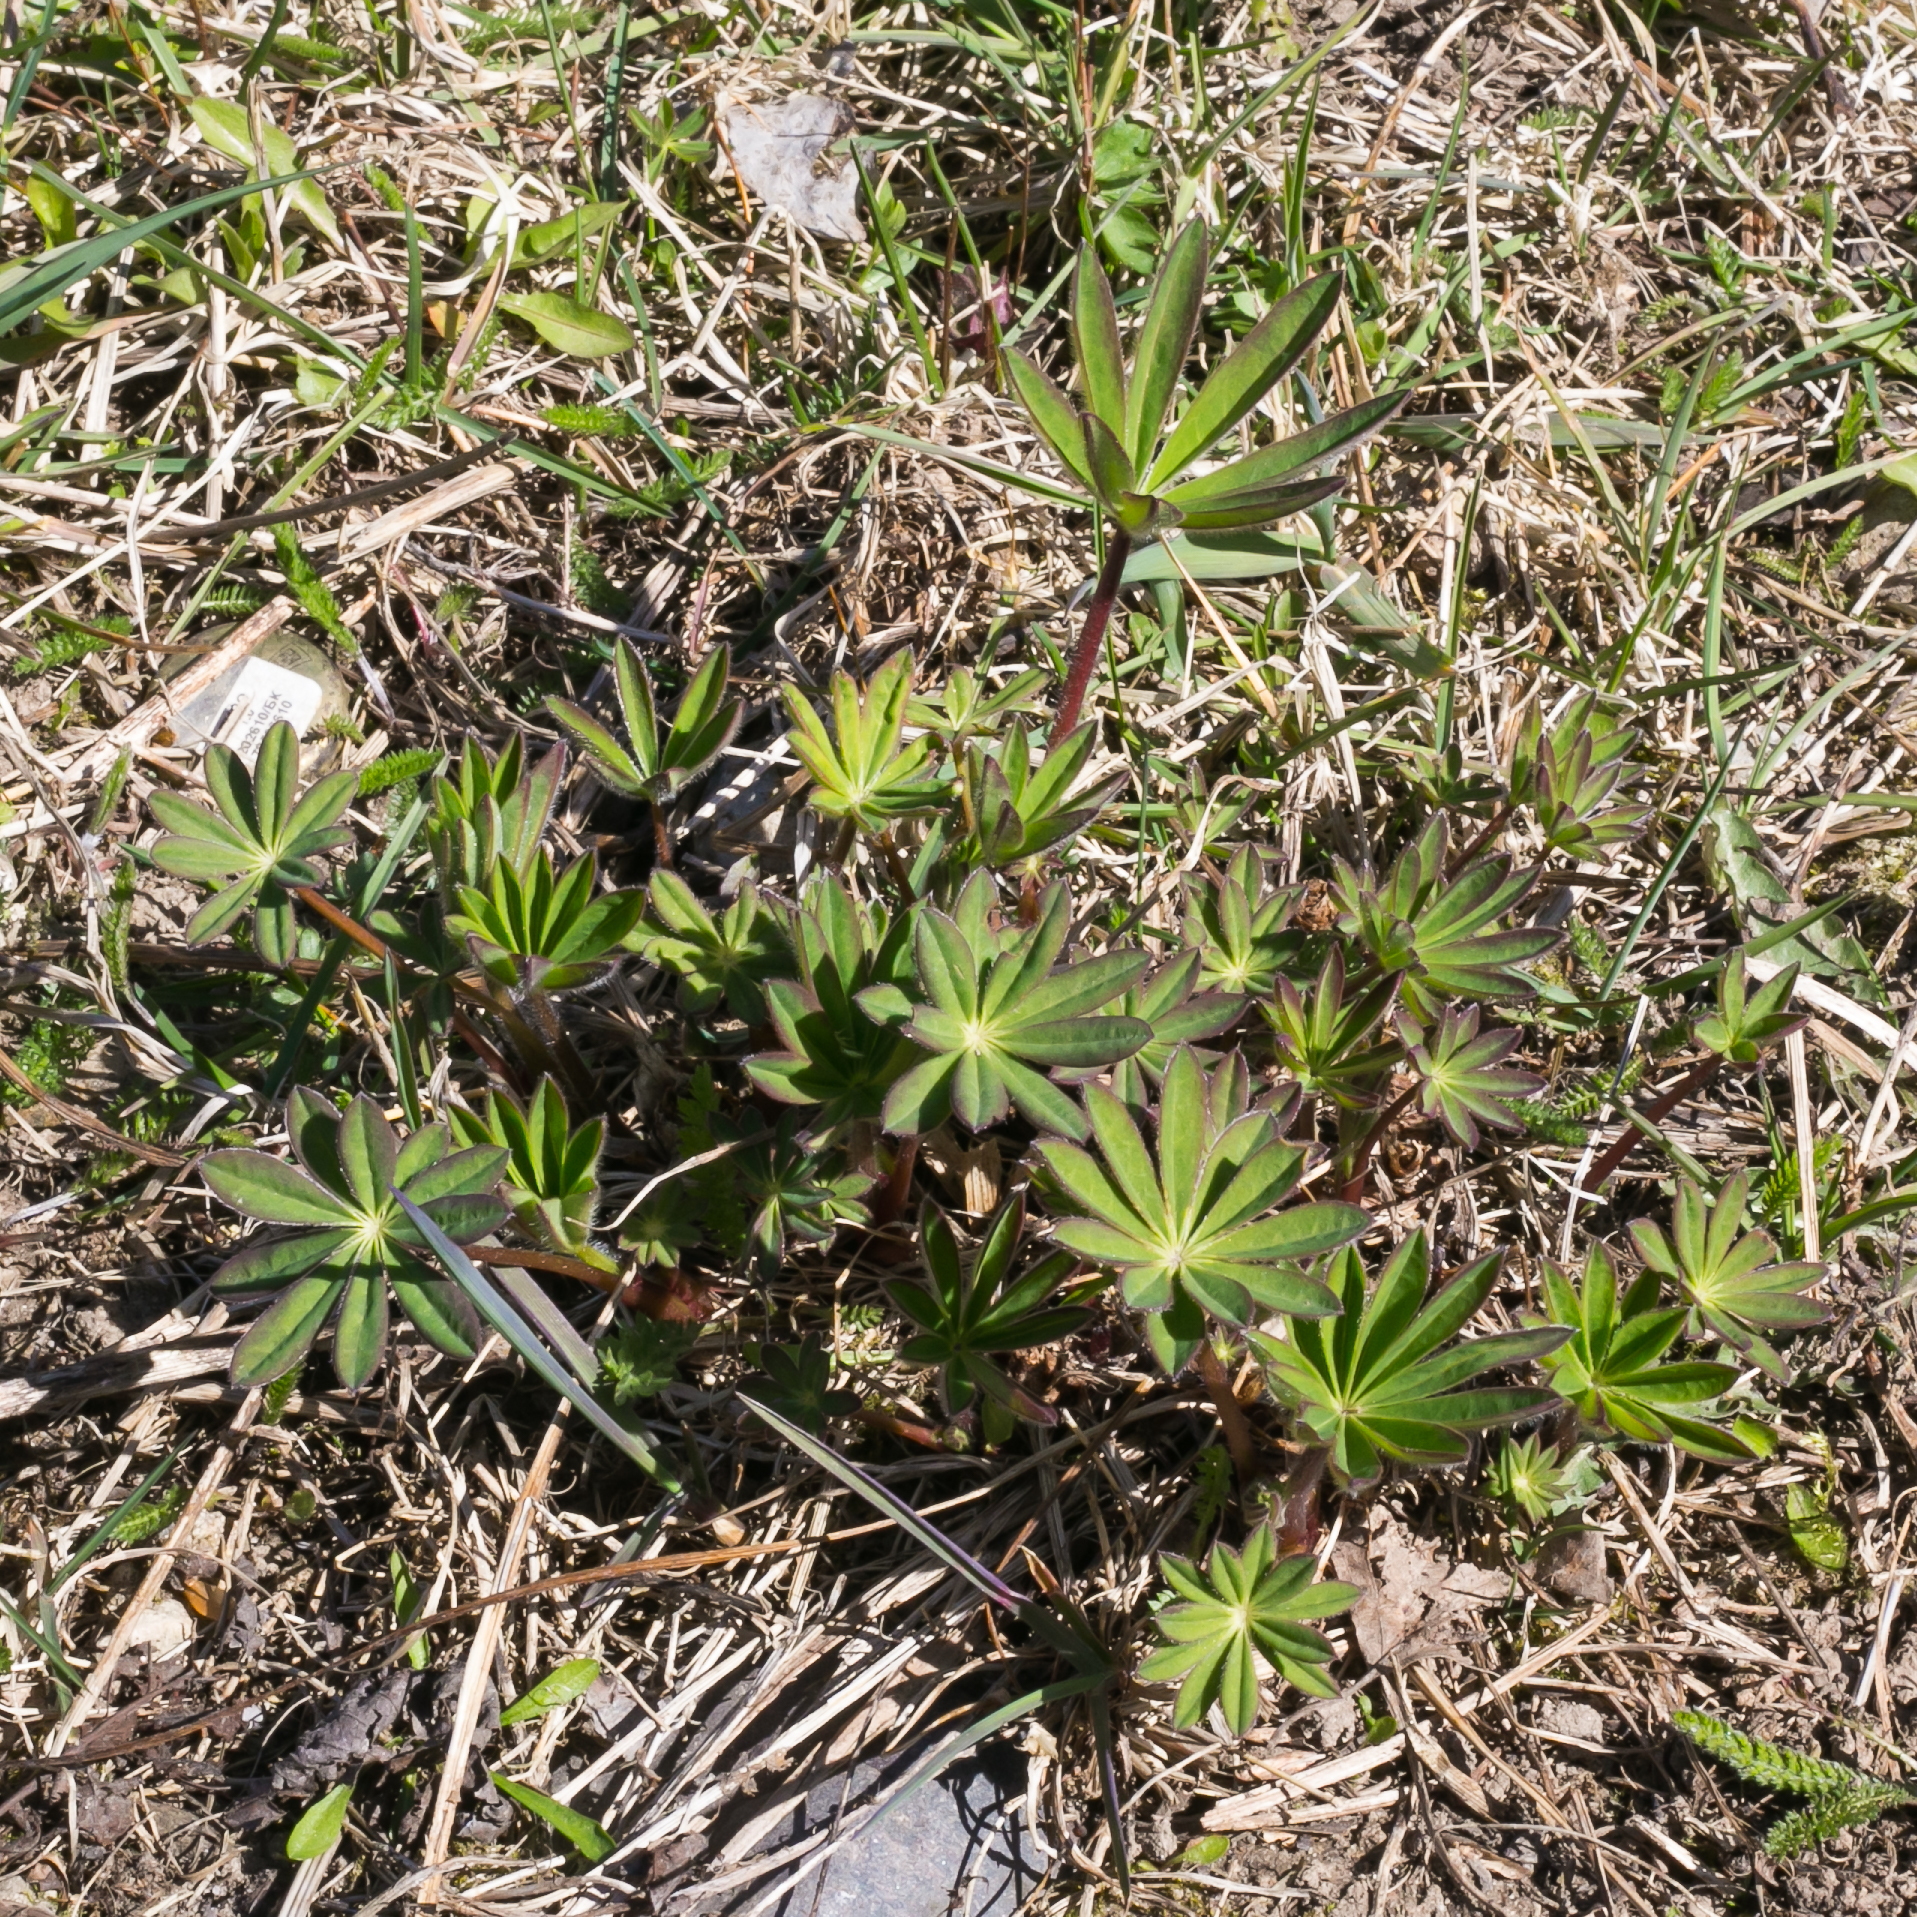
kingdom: Plantae
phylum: Tracheophyta
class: Magnoliopsida
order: Fabales
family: Fabaceae
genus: Lupinus
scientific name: Lupinus polyphyllus
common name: Garden lupin
